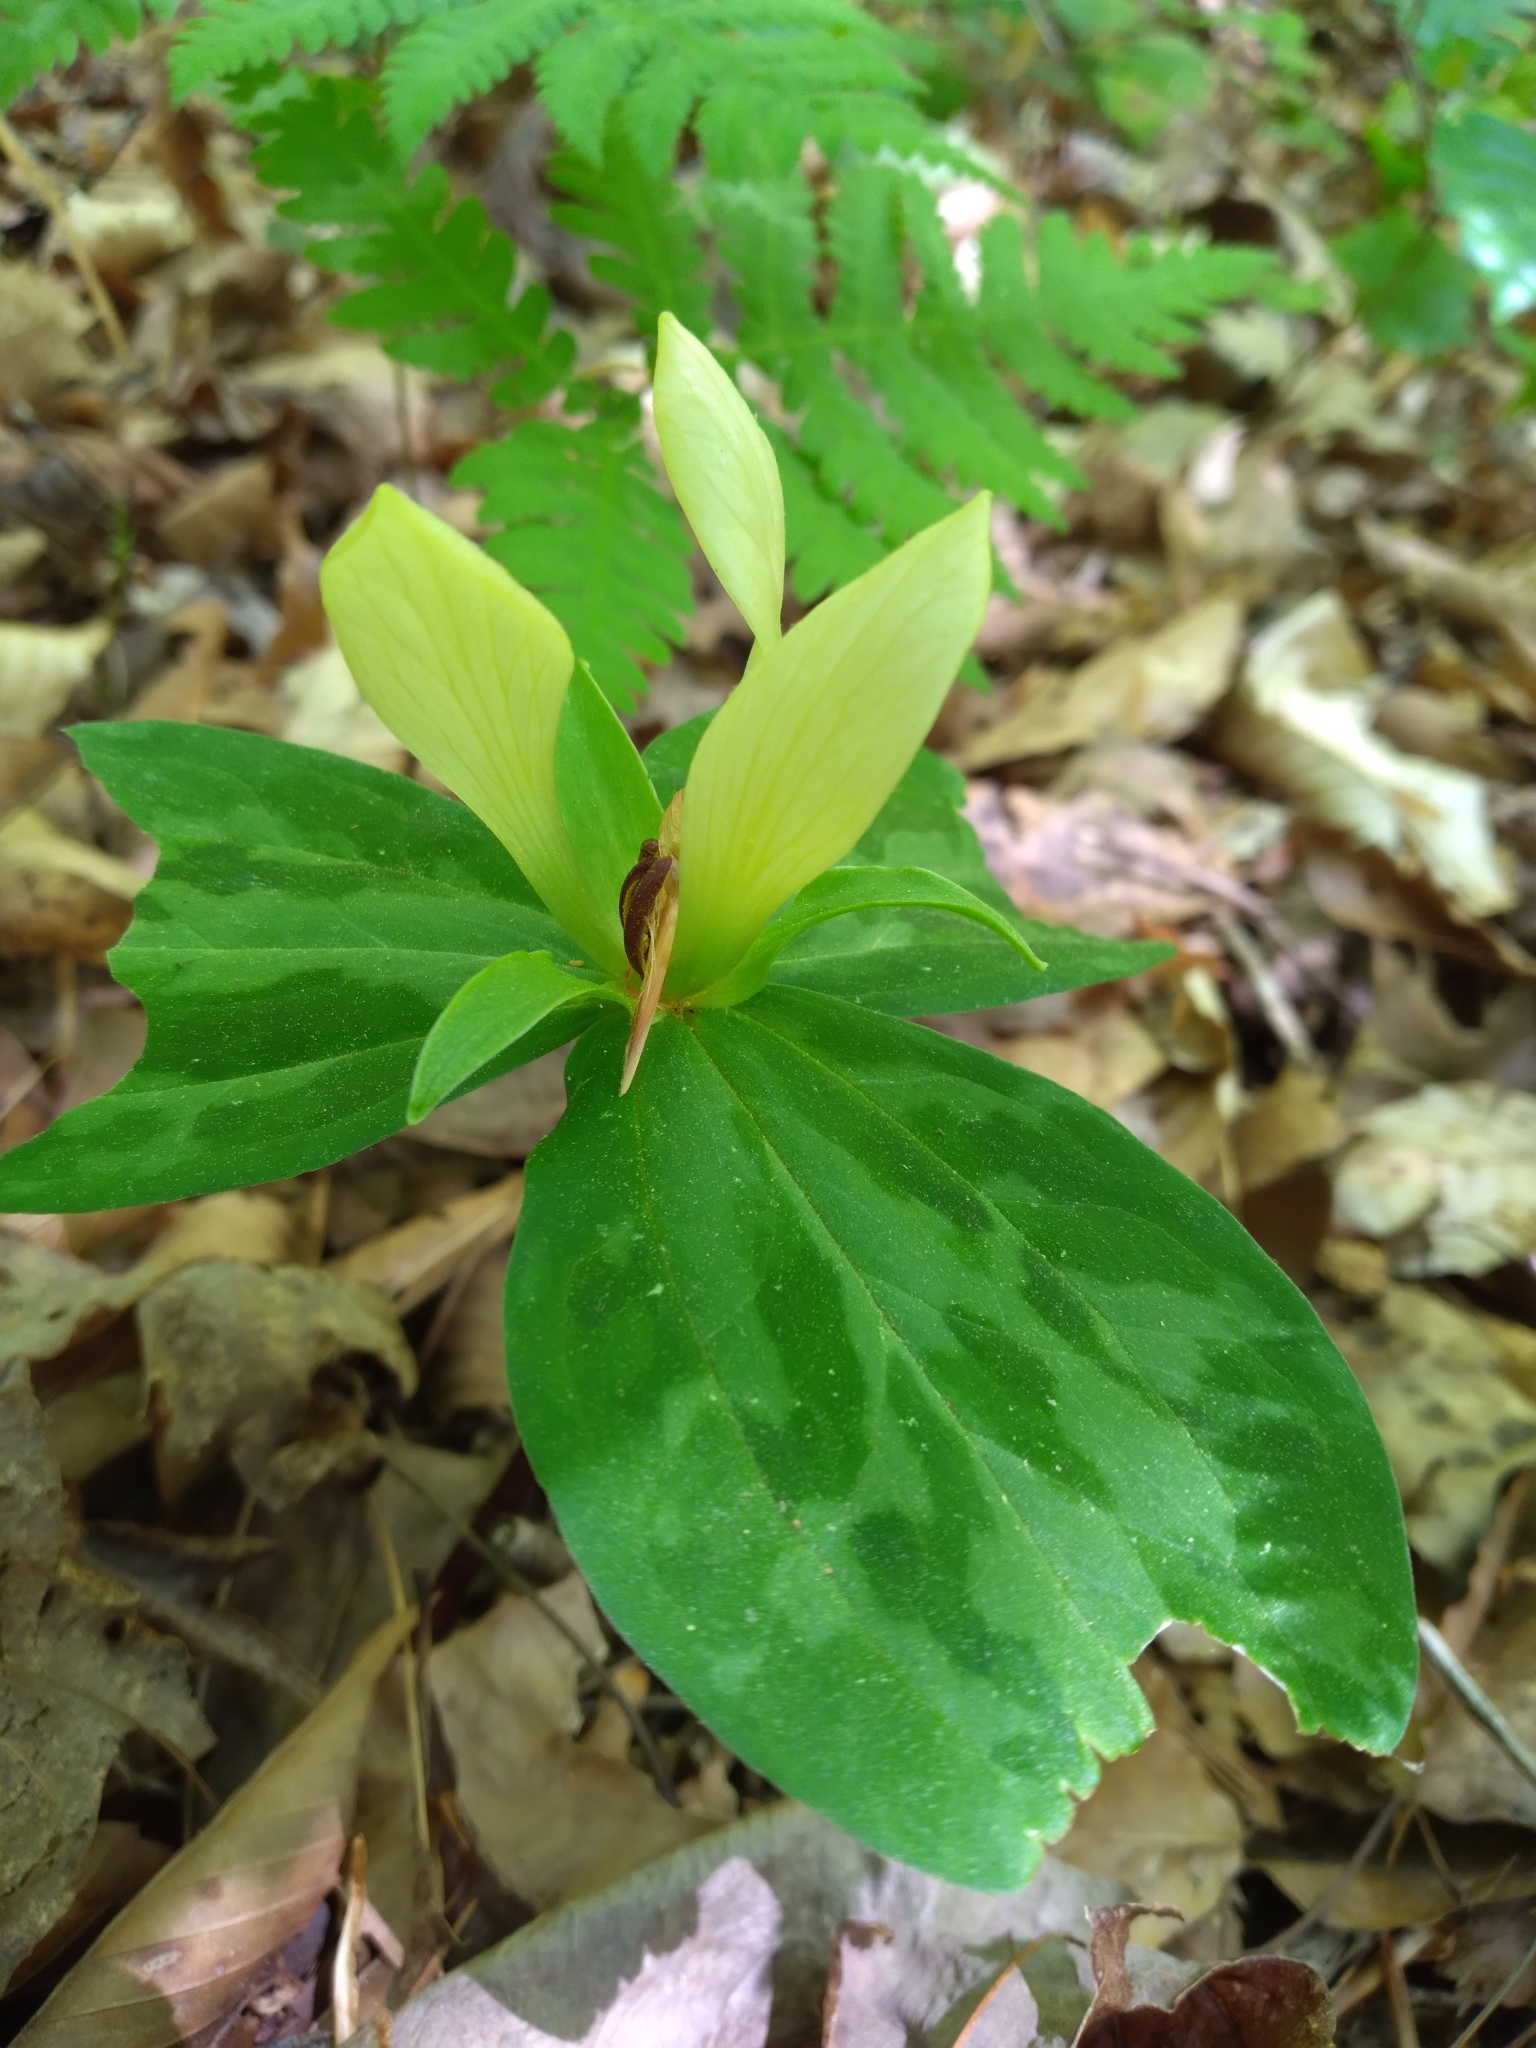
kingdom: Plantae
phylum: Tracheophyta
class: Liliopsida
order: Liliales
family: Melanthiaceae
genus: Trillium
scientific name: Trillium discolor
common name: Faded trillium
